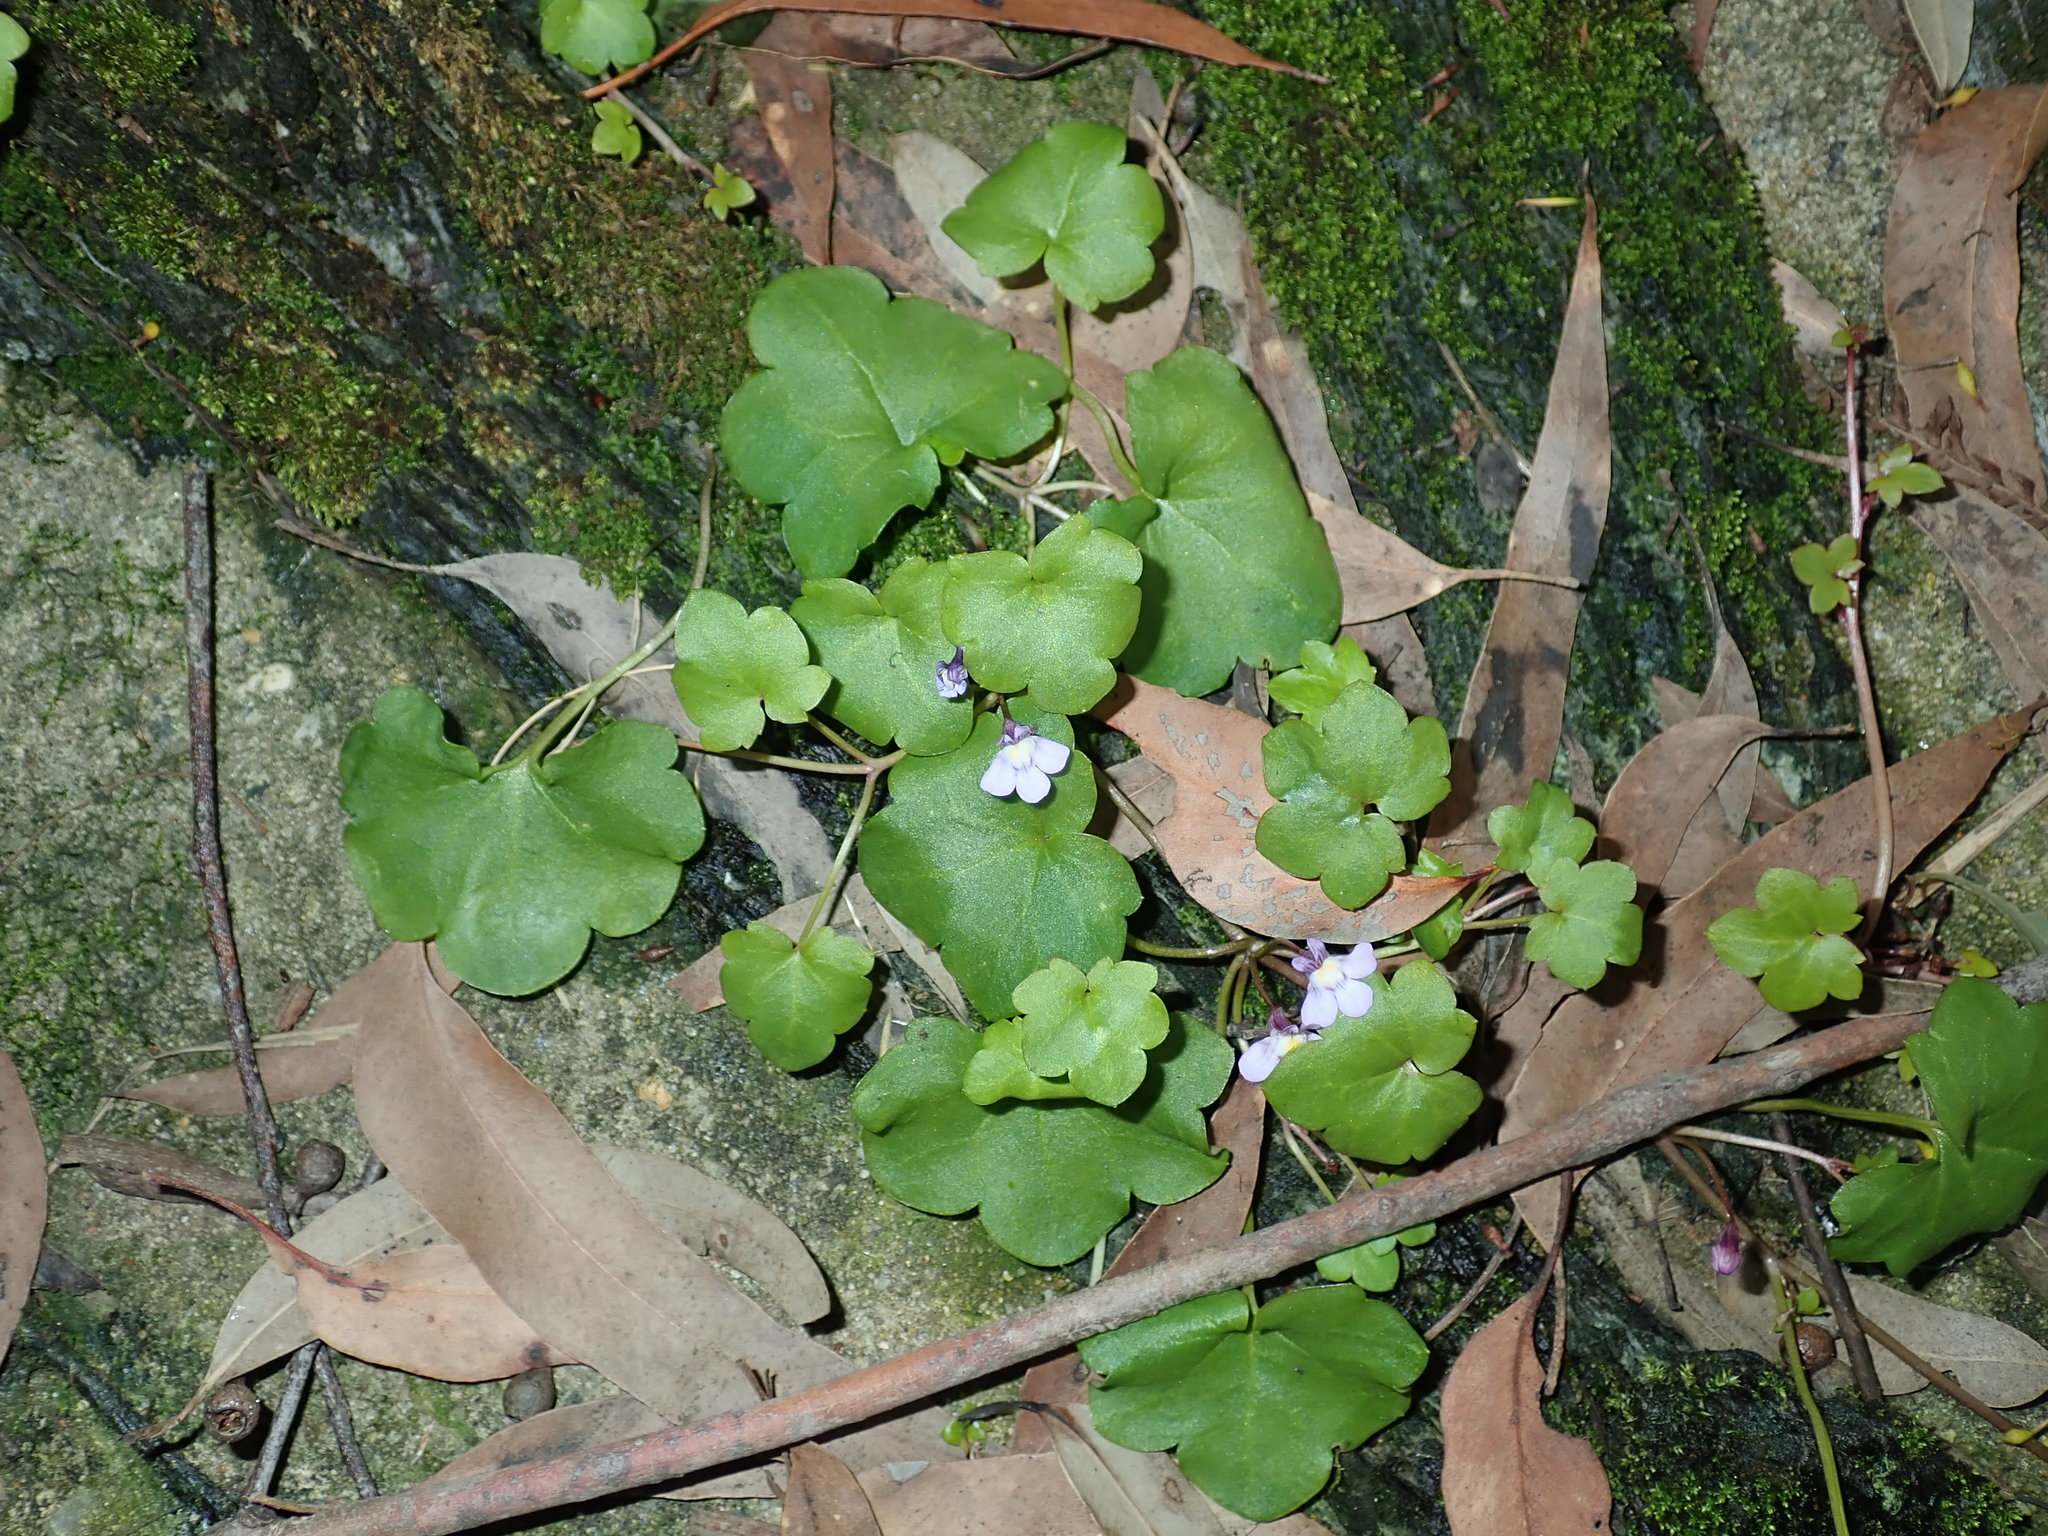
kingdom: Plantae
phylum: Tracheophyta
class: Magnoliopsida
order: Lamiales
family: Plantaginaceae
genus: Cymbalaria
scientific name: Cymbalaria muralis
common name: Ivy-leaved toadflax
